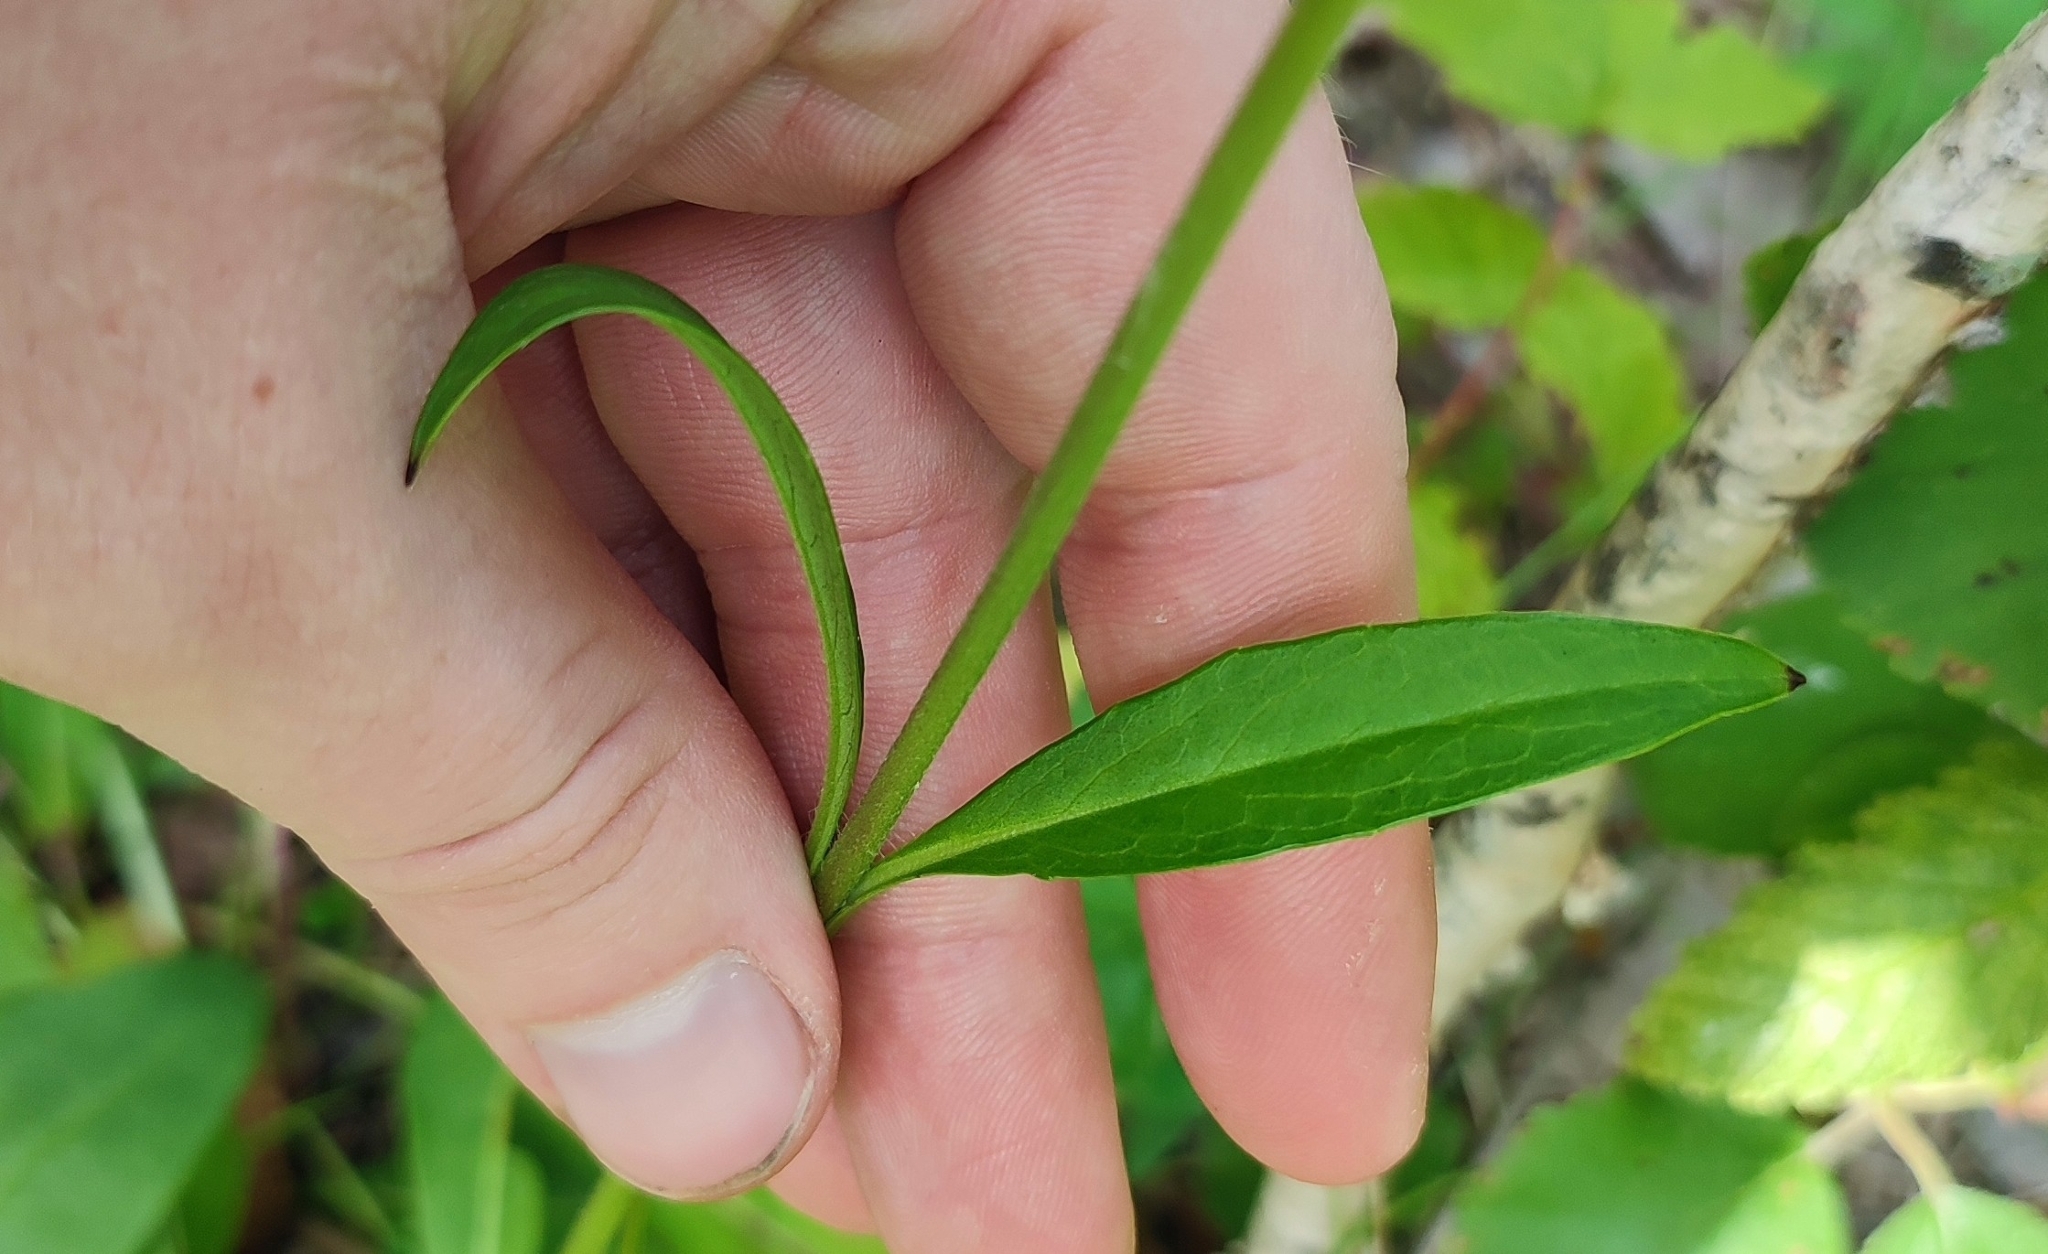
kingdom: Plantae
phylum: Tracheophyta
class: Magnoliopsida
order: Dipsacales
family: Caprifoliaceae
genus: Succisa
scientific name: Succisa pratensis
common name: Devil's-bit
